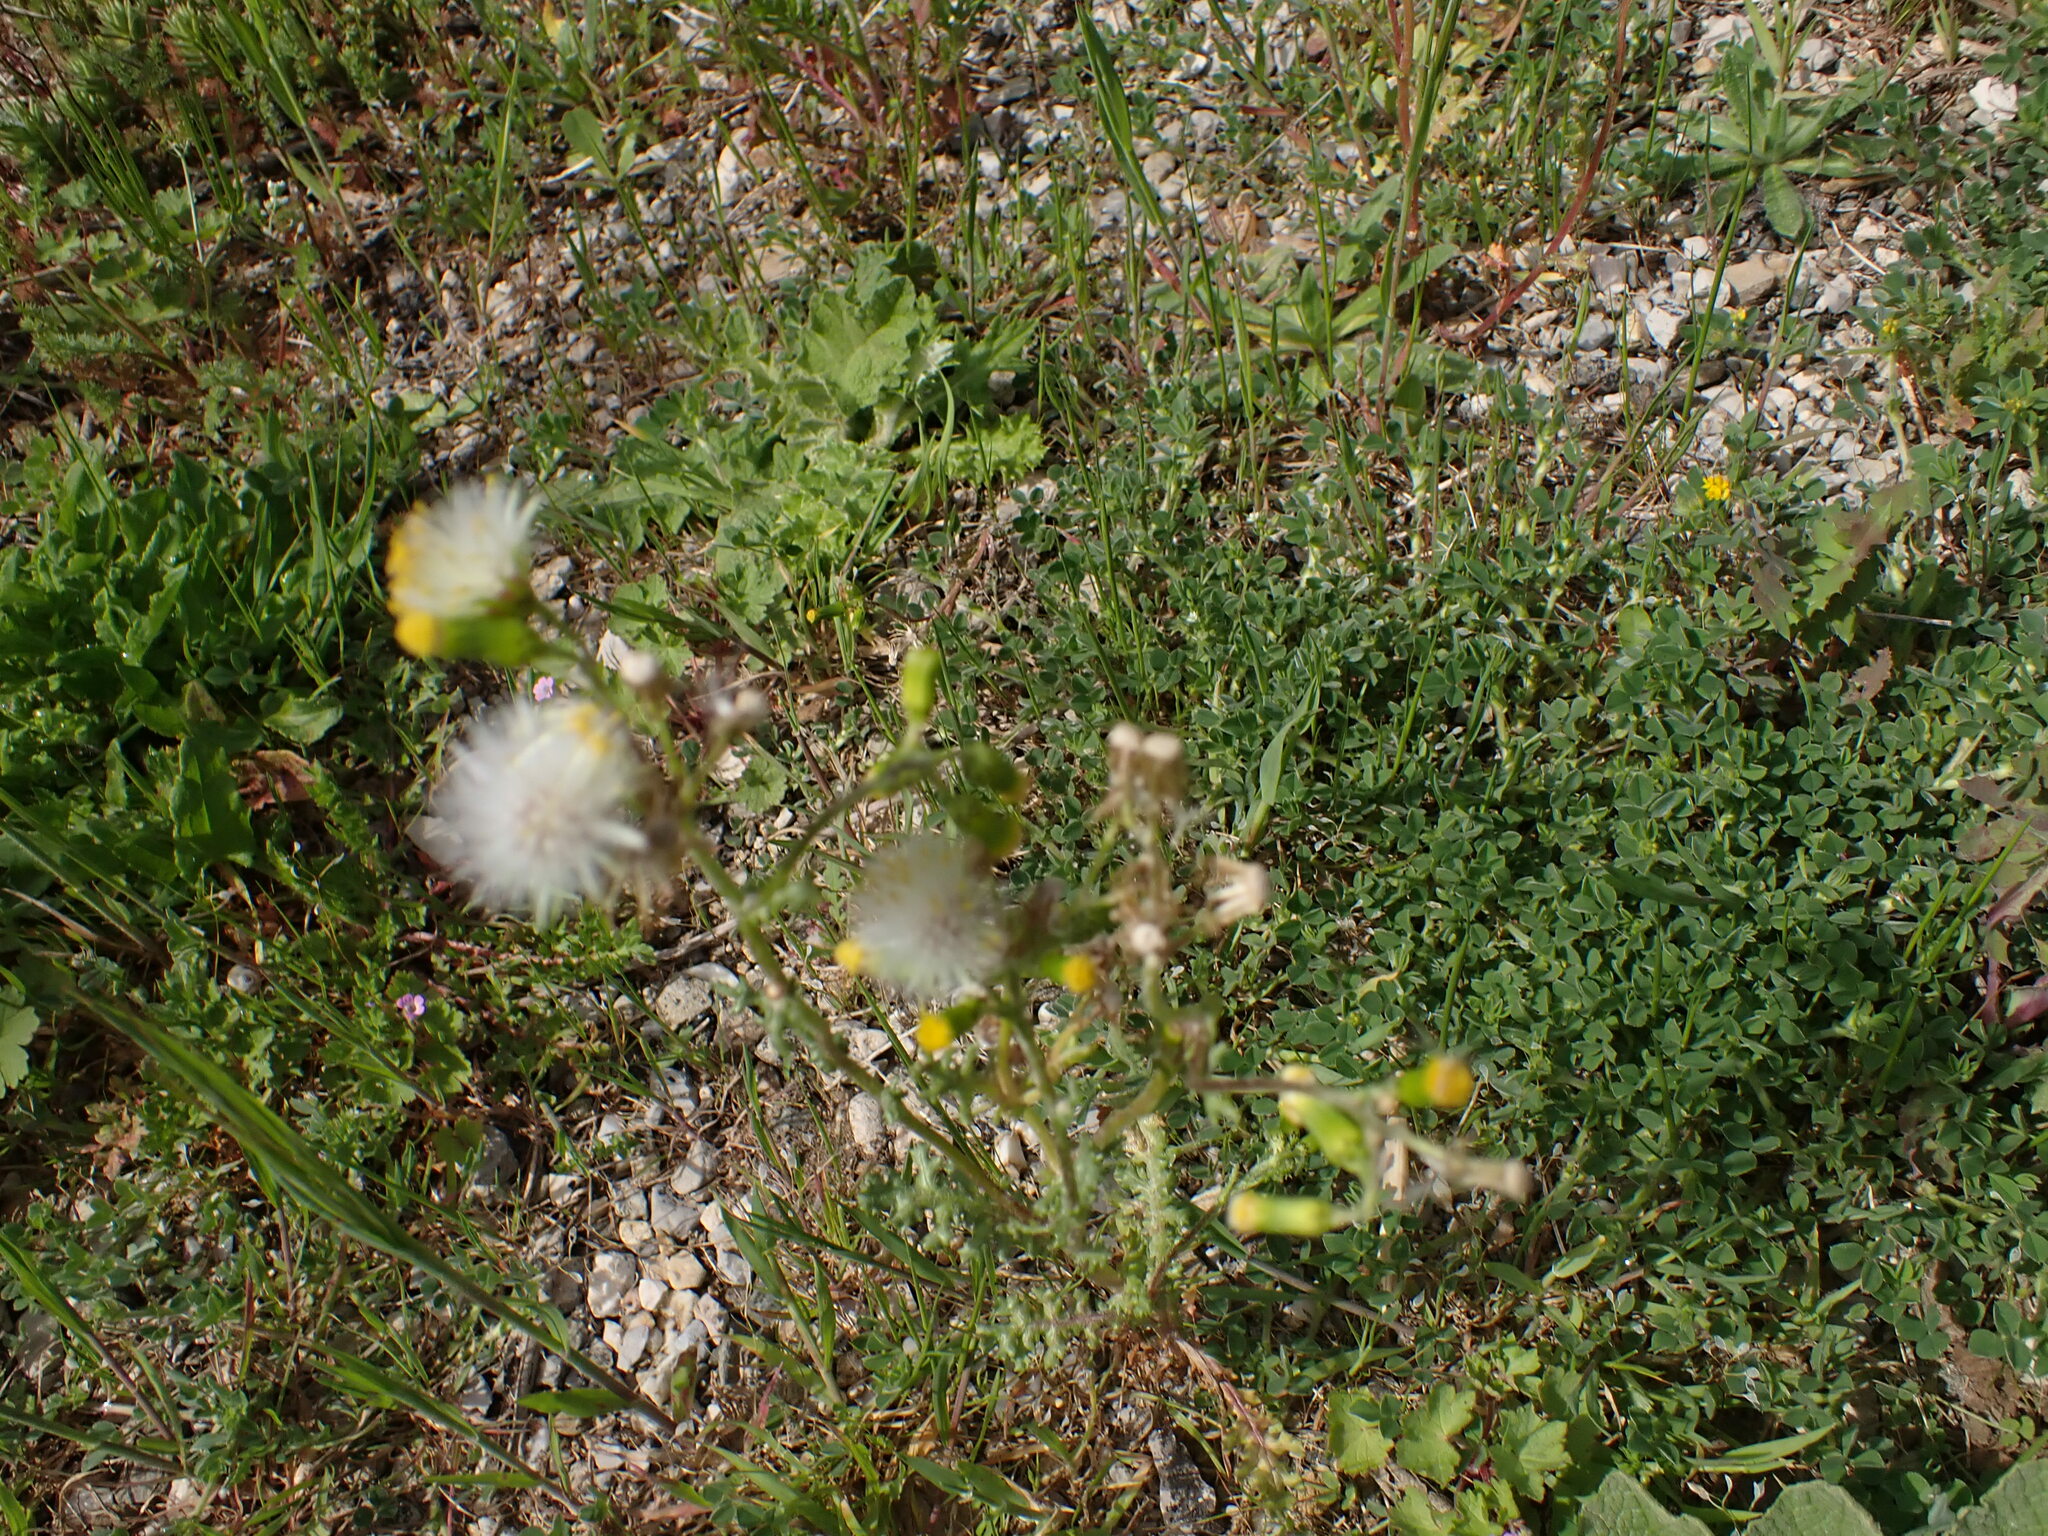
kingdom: Plantae
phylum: Tracheophyta
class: Magnoliopsida
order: Asterales
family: Asteraceae
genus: Senecio
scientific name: Senecio vulgaris
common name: Old-man-in-the-spring
